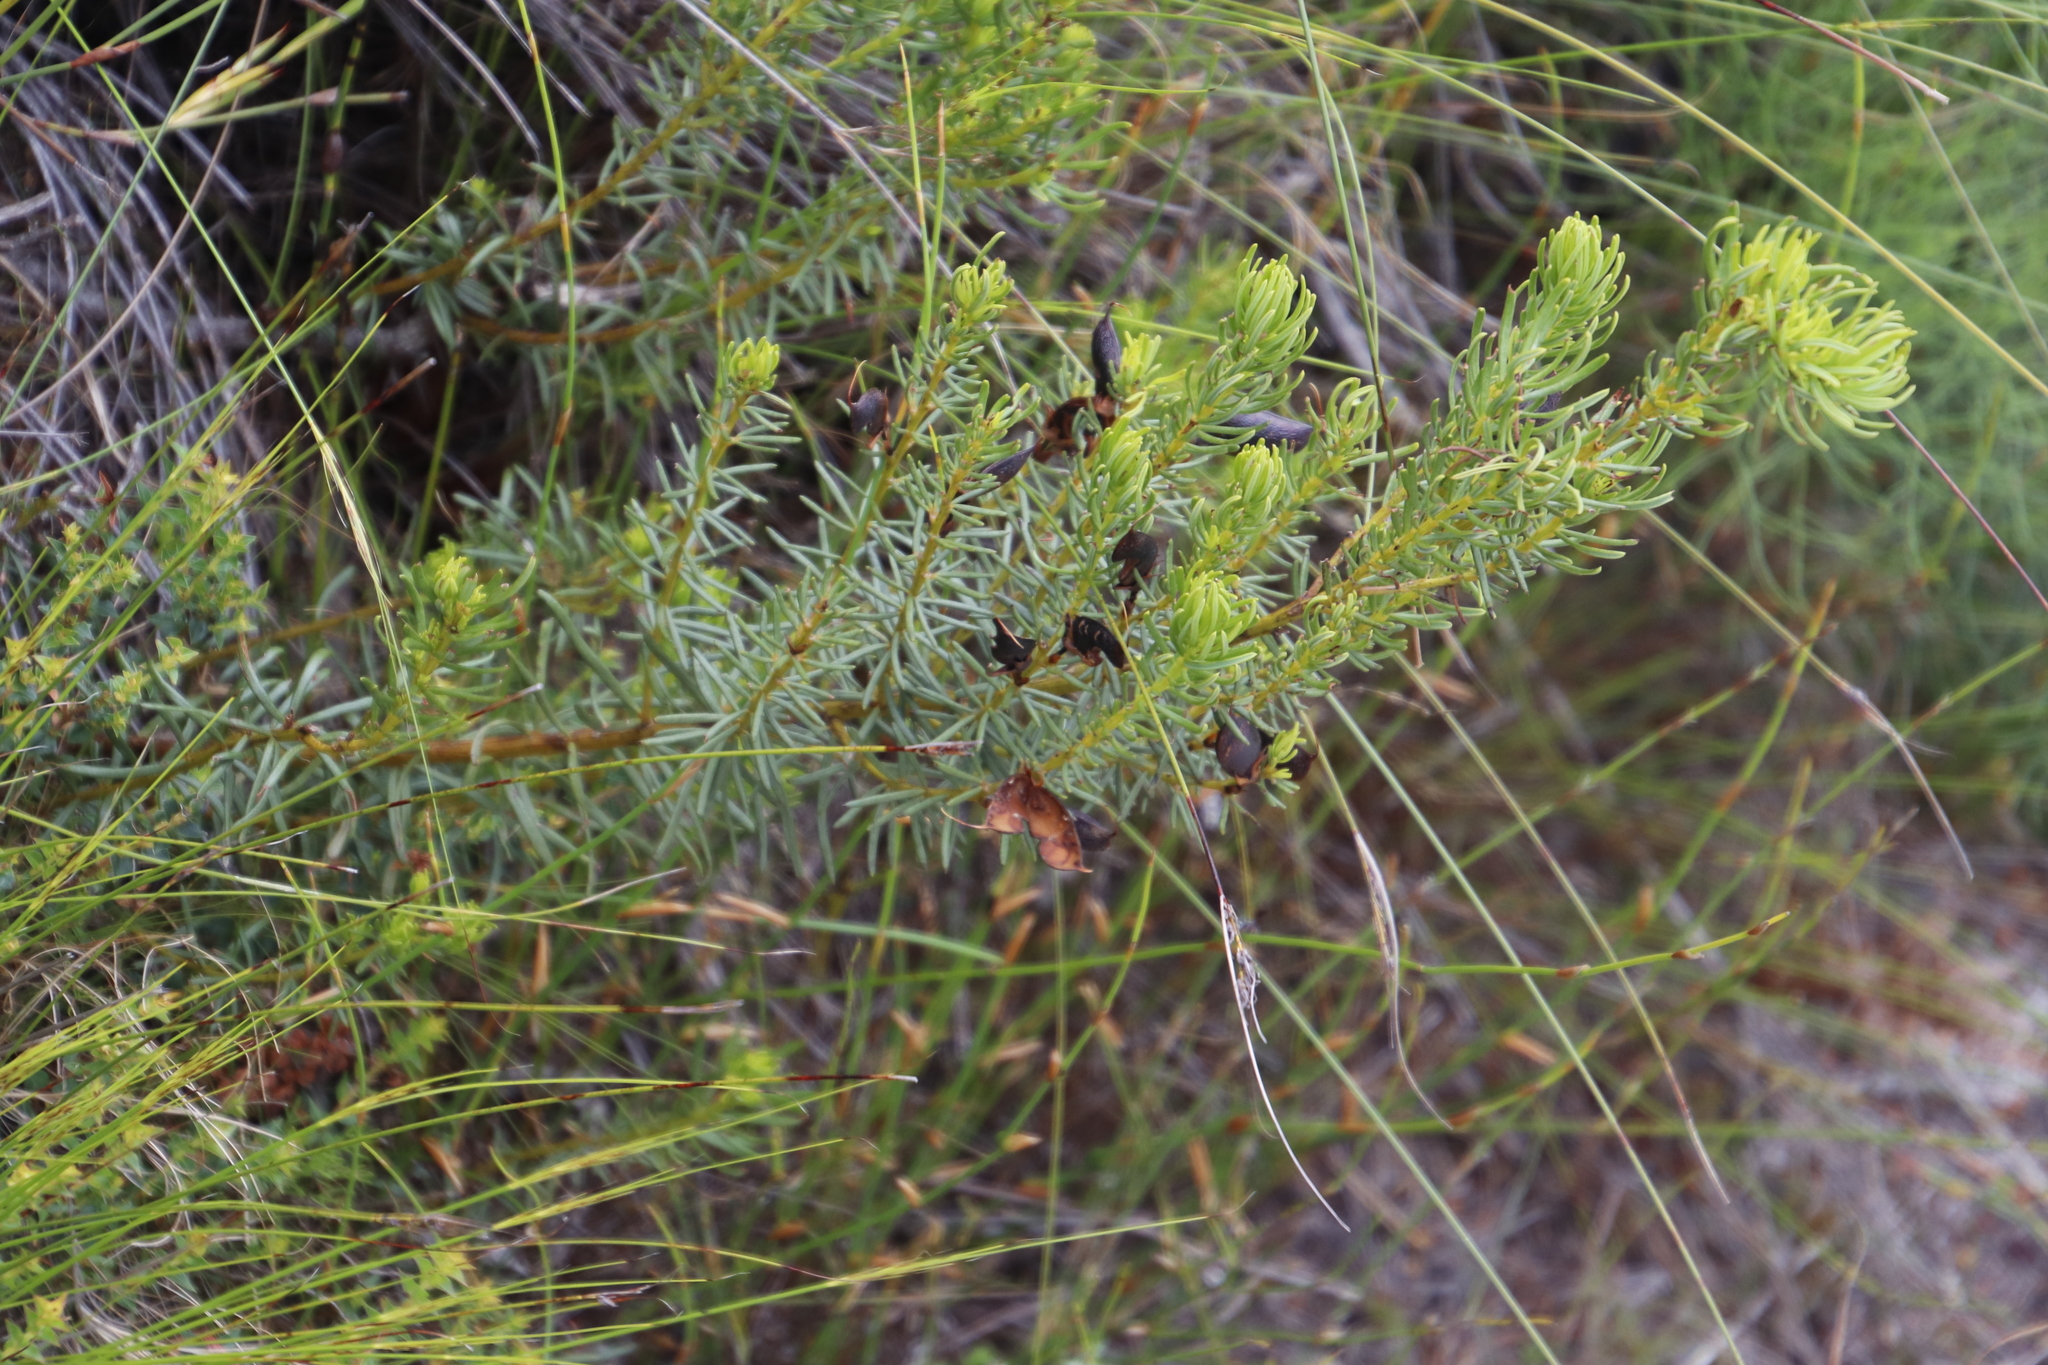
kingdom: Plantae
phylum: Tracheophyta
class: Magnoliopsida
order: Fabales
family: Fabaceae
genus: Cyclopia
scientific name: Cyclopia genistoides
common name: Honeybush tea
